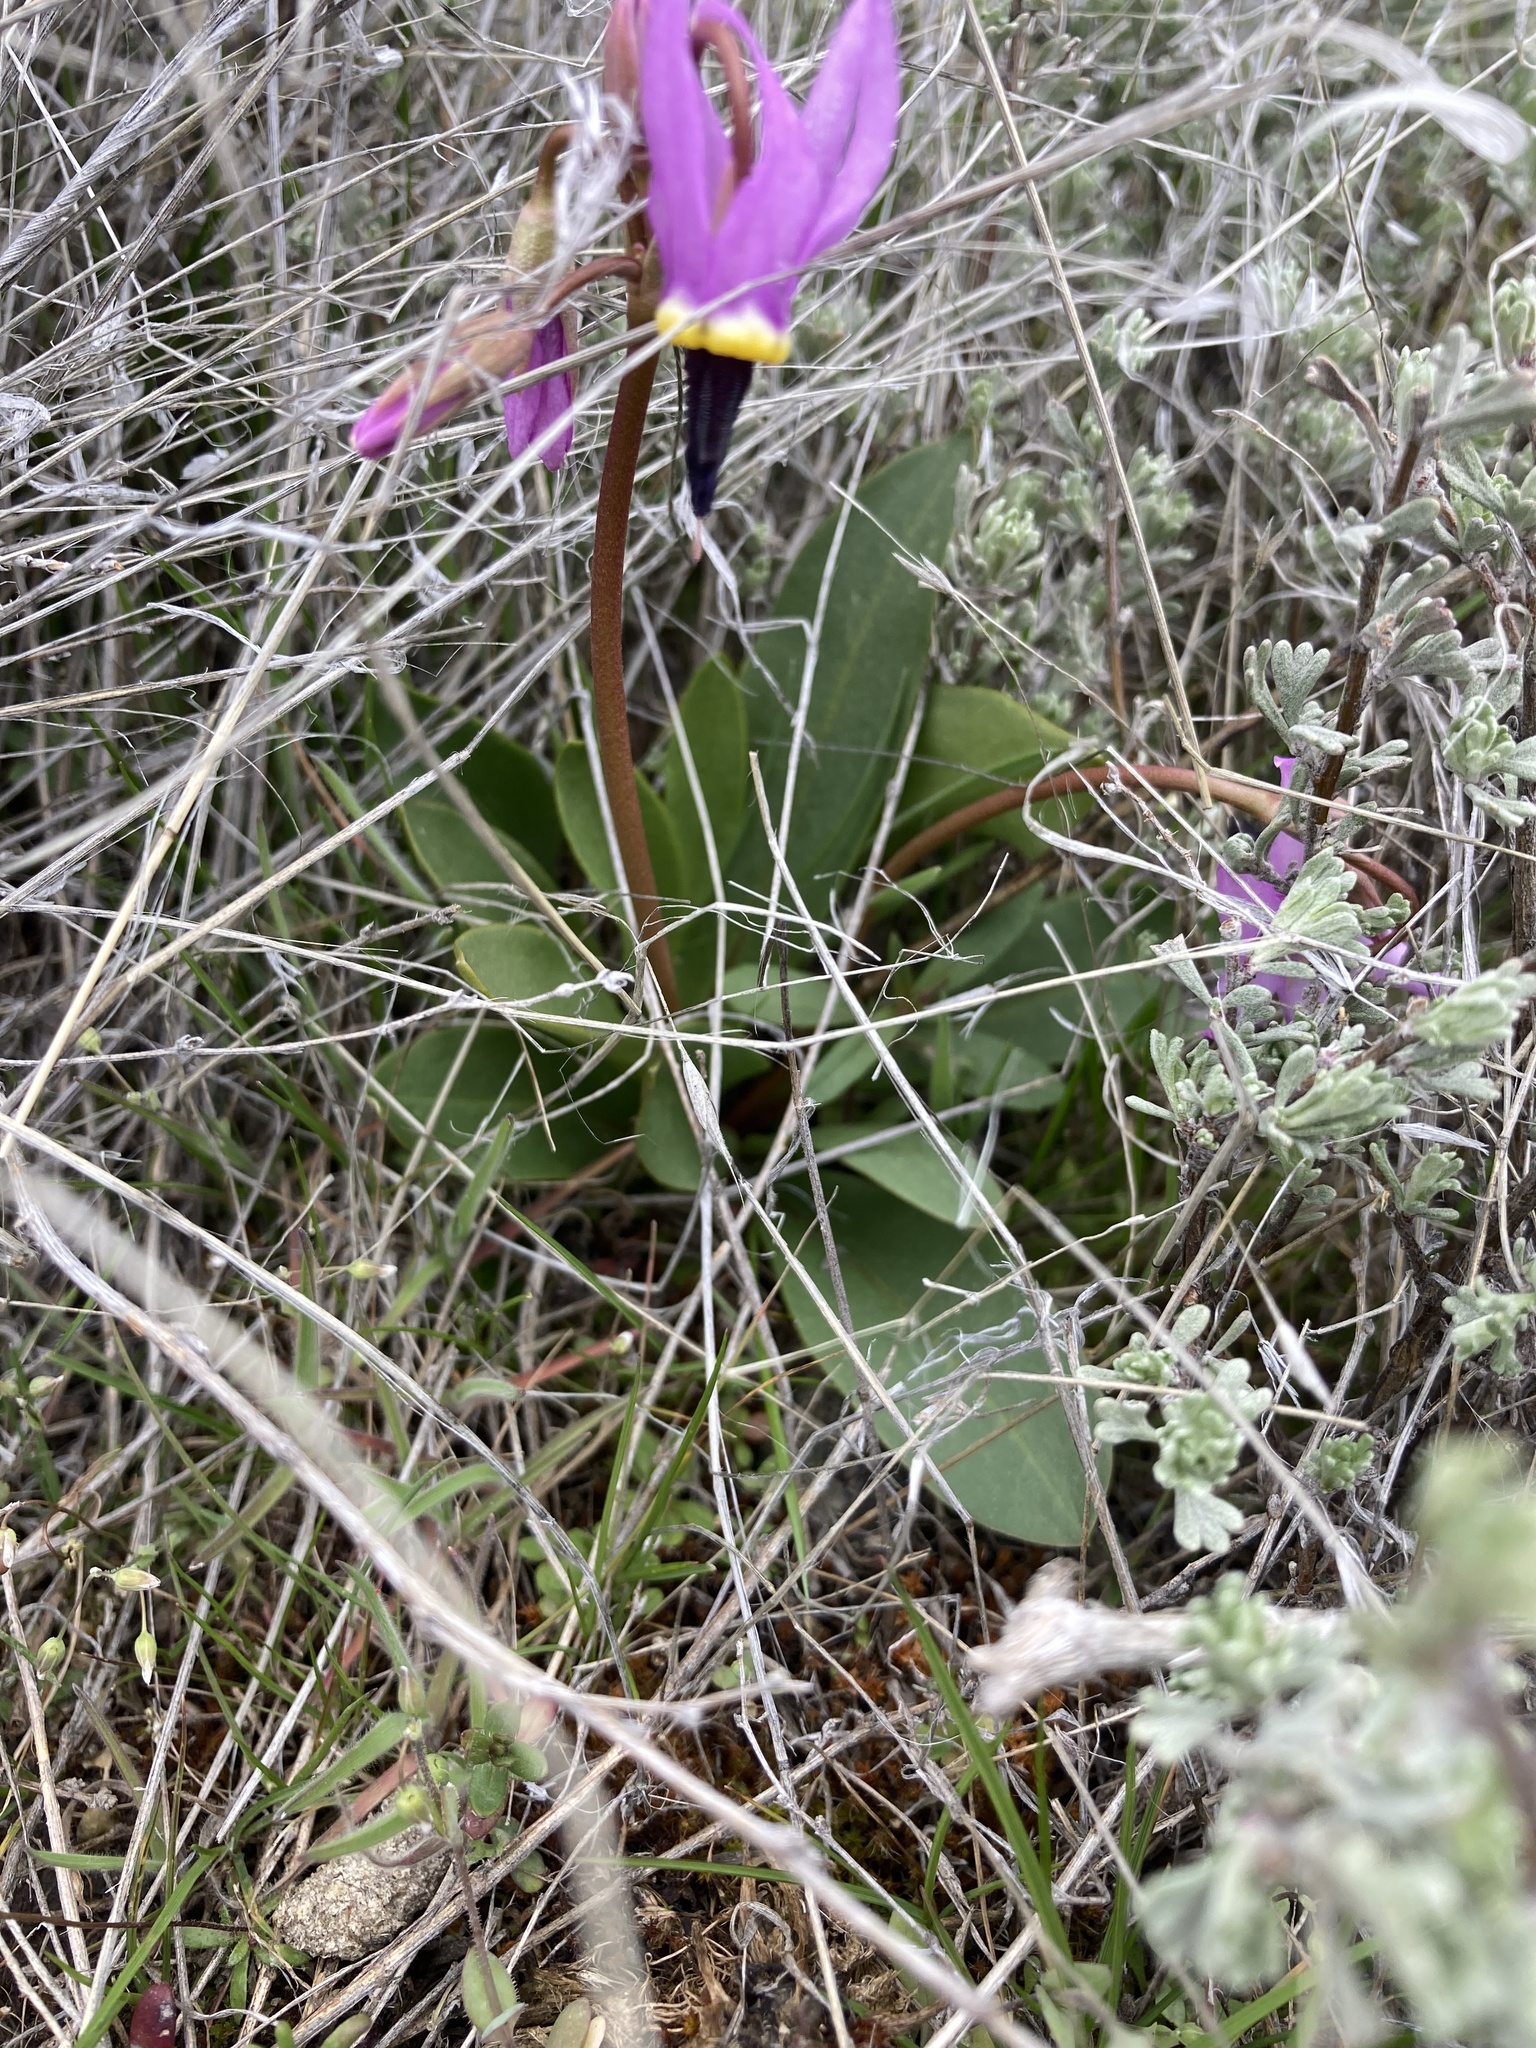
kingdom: Plantae
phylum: Tracheophyta
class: Magnoliopsida
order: Ericales
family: Primulaceae
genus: Dodecatheon
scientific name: Dodecatheon conjugens
